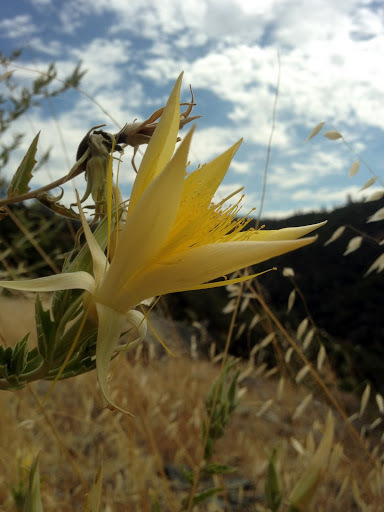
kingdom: Plantae
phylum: Tracheophyta
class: Magnoliopsida
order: Cornales
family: Loasaceae
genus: Mentzelia
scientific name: Mentzelia laevicaulis
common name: Smooth-stem blazingstar
